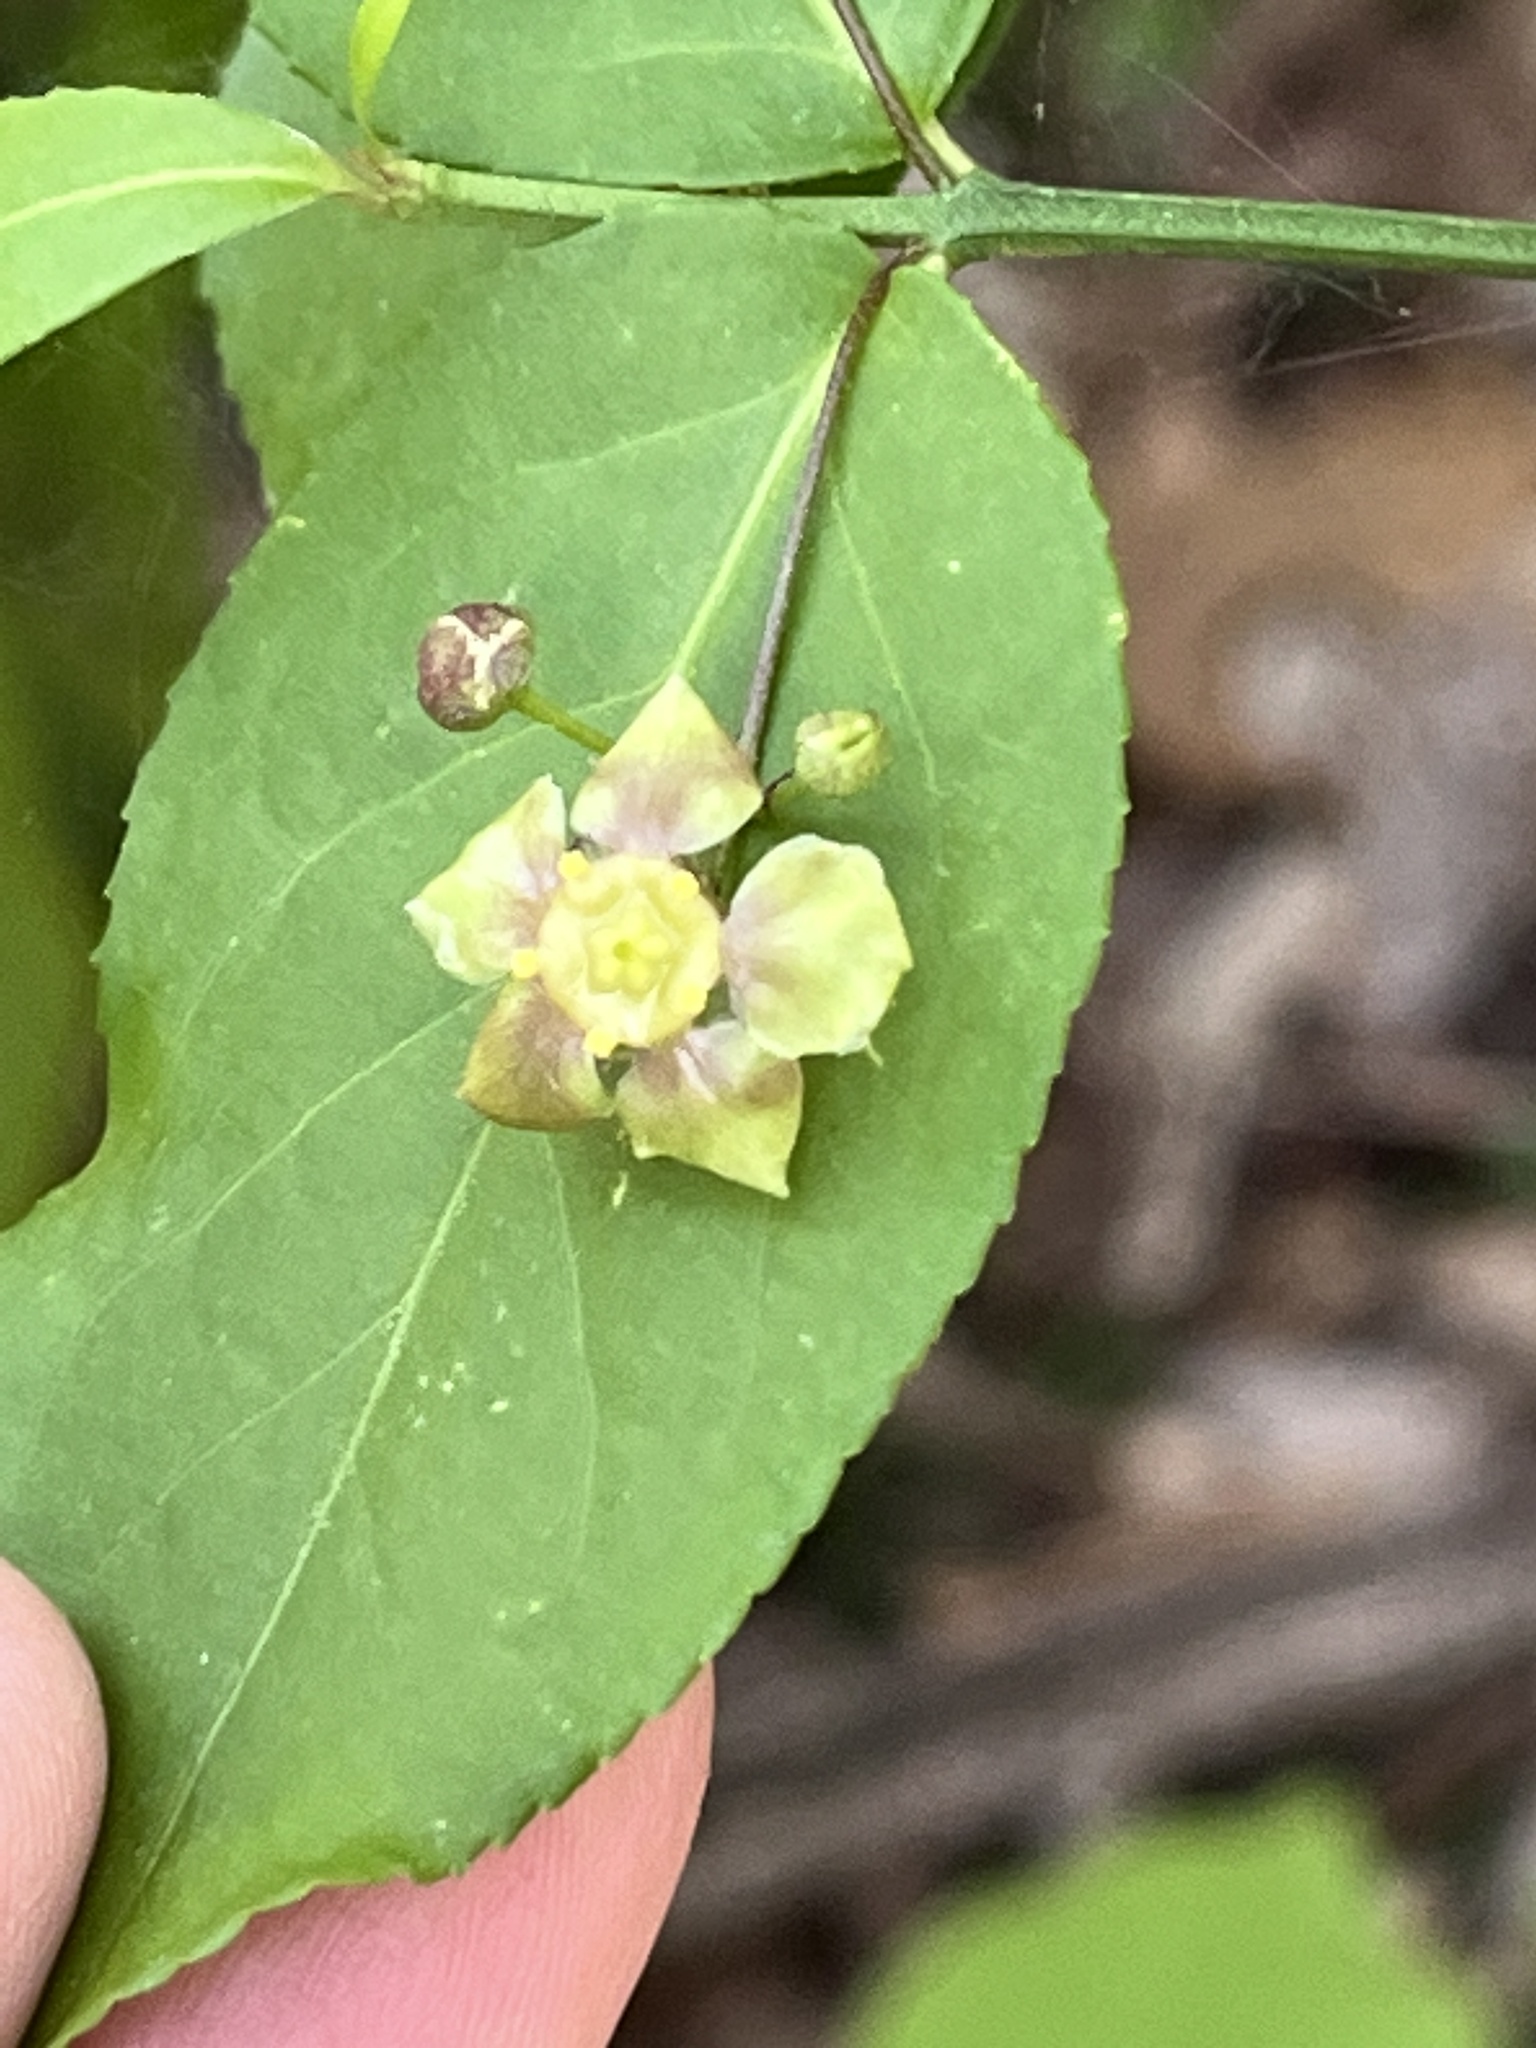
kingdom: Plantae
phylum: Tracheophyta
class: Magnoliopsida
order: Celastrales
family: Celastraceae
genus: Euonymus
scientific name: Euonymus americanus
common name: Bursting-heart
